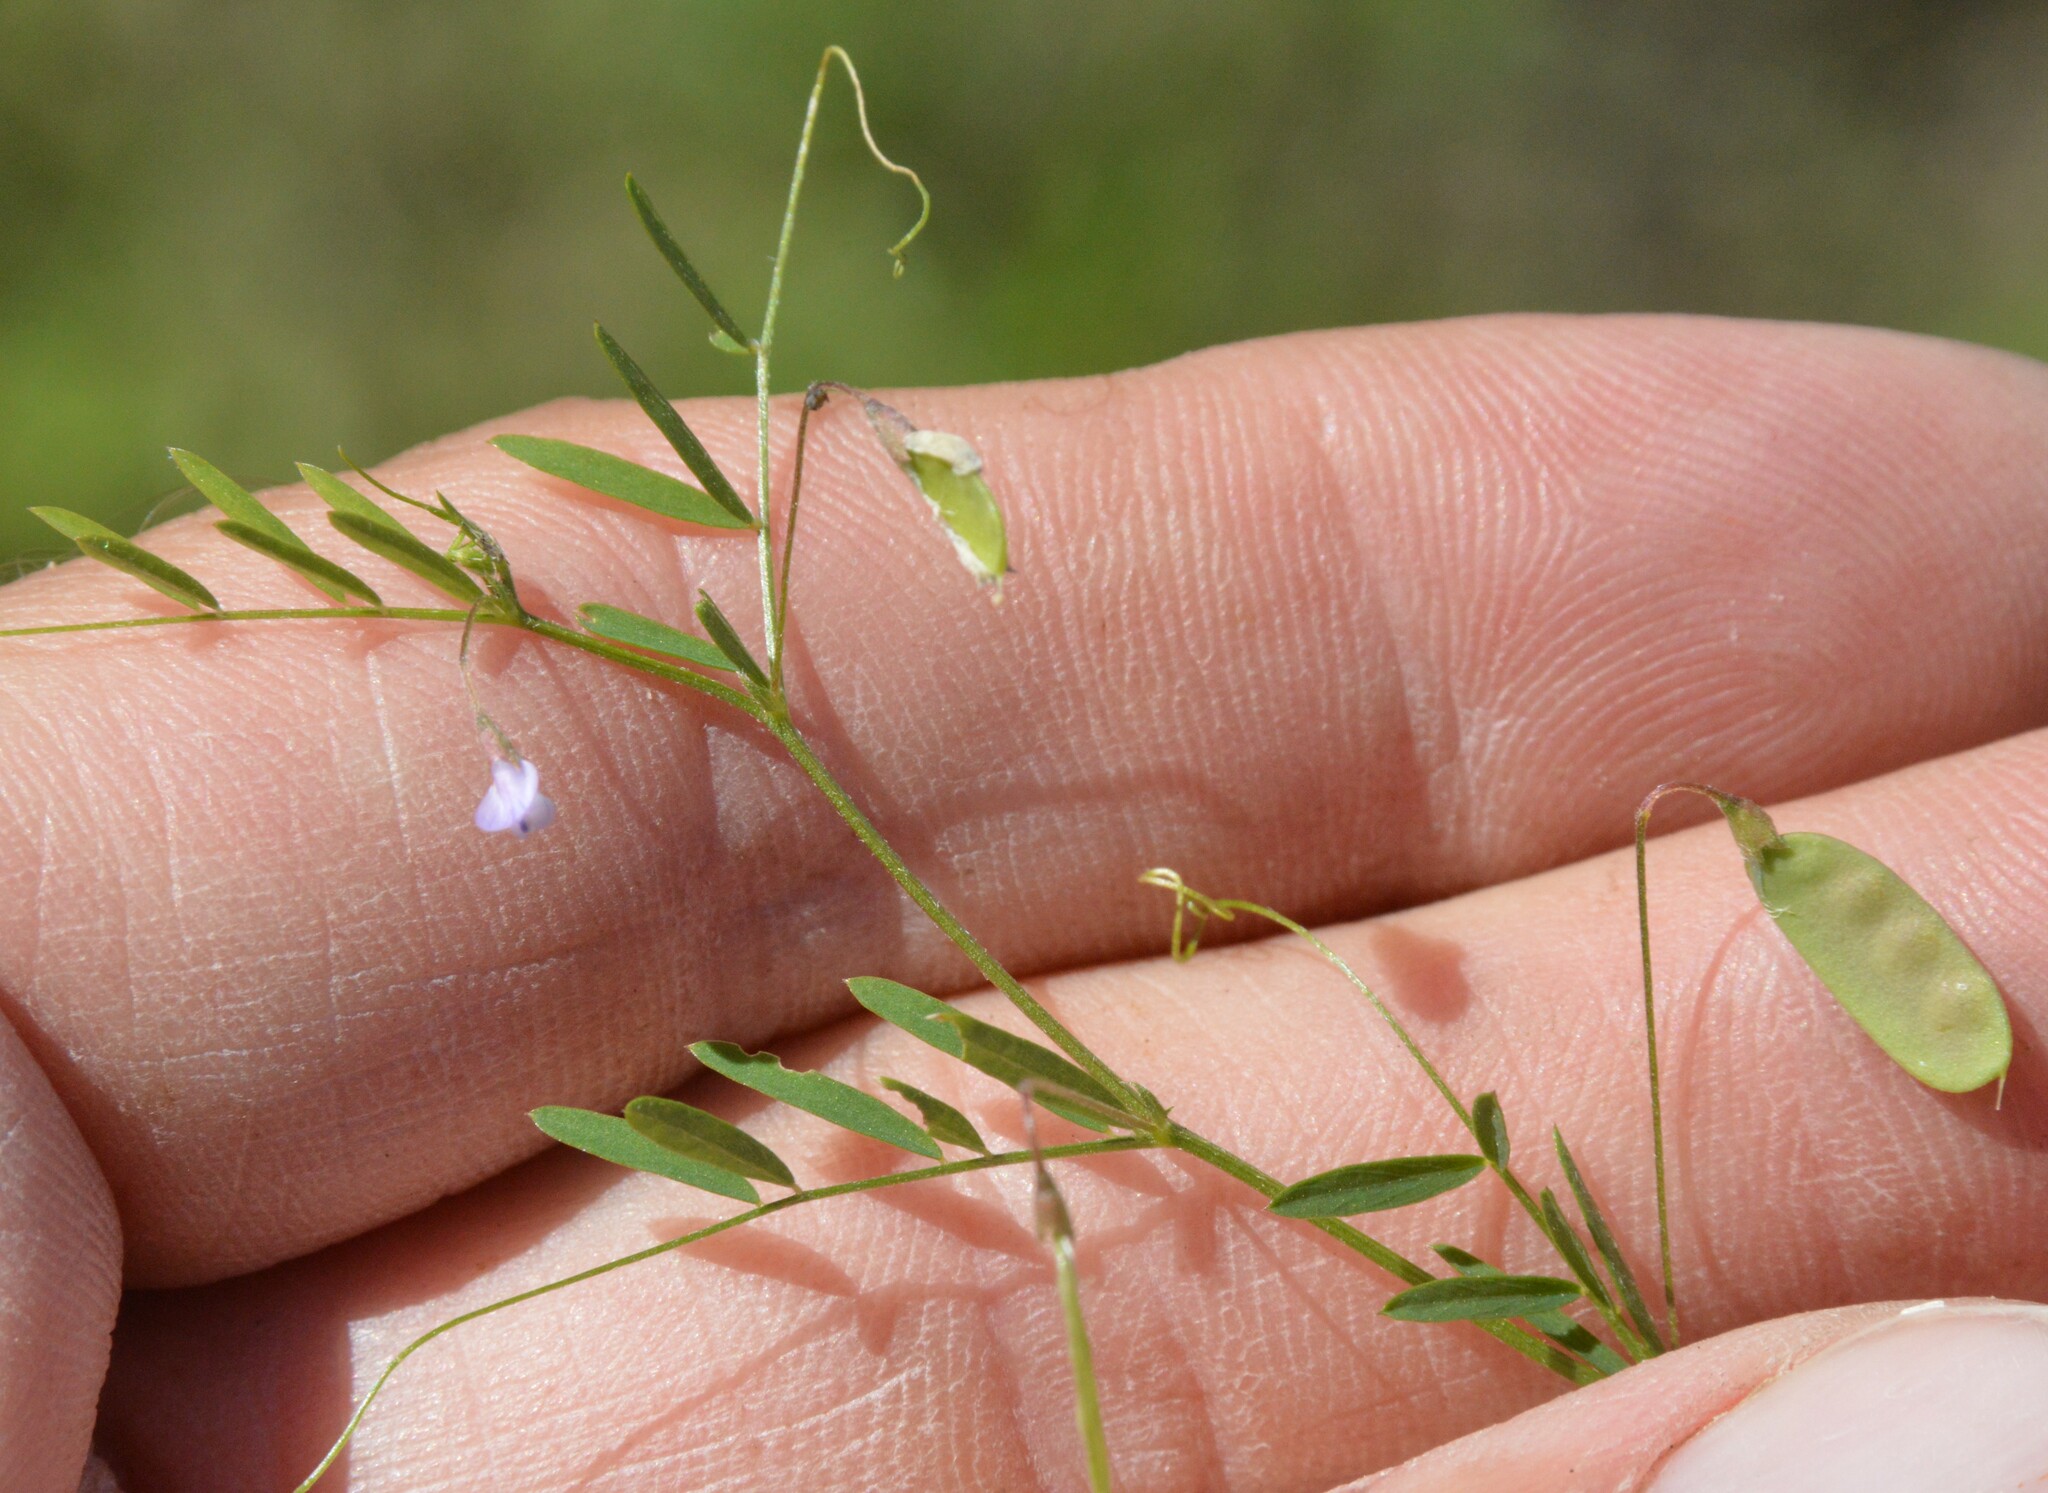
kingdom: Plantae
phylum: Tracheophyta
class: Magnoliopsida
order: Fabales
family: Fabaceae
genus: Vicia
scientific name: Vicia tetrasperma
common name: Smooth tare
